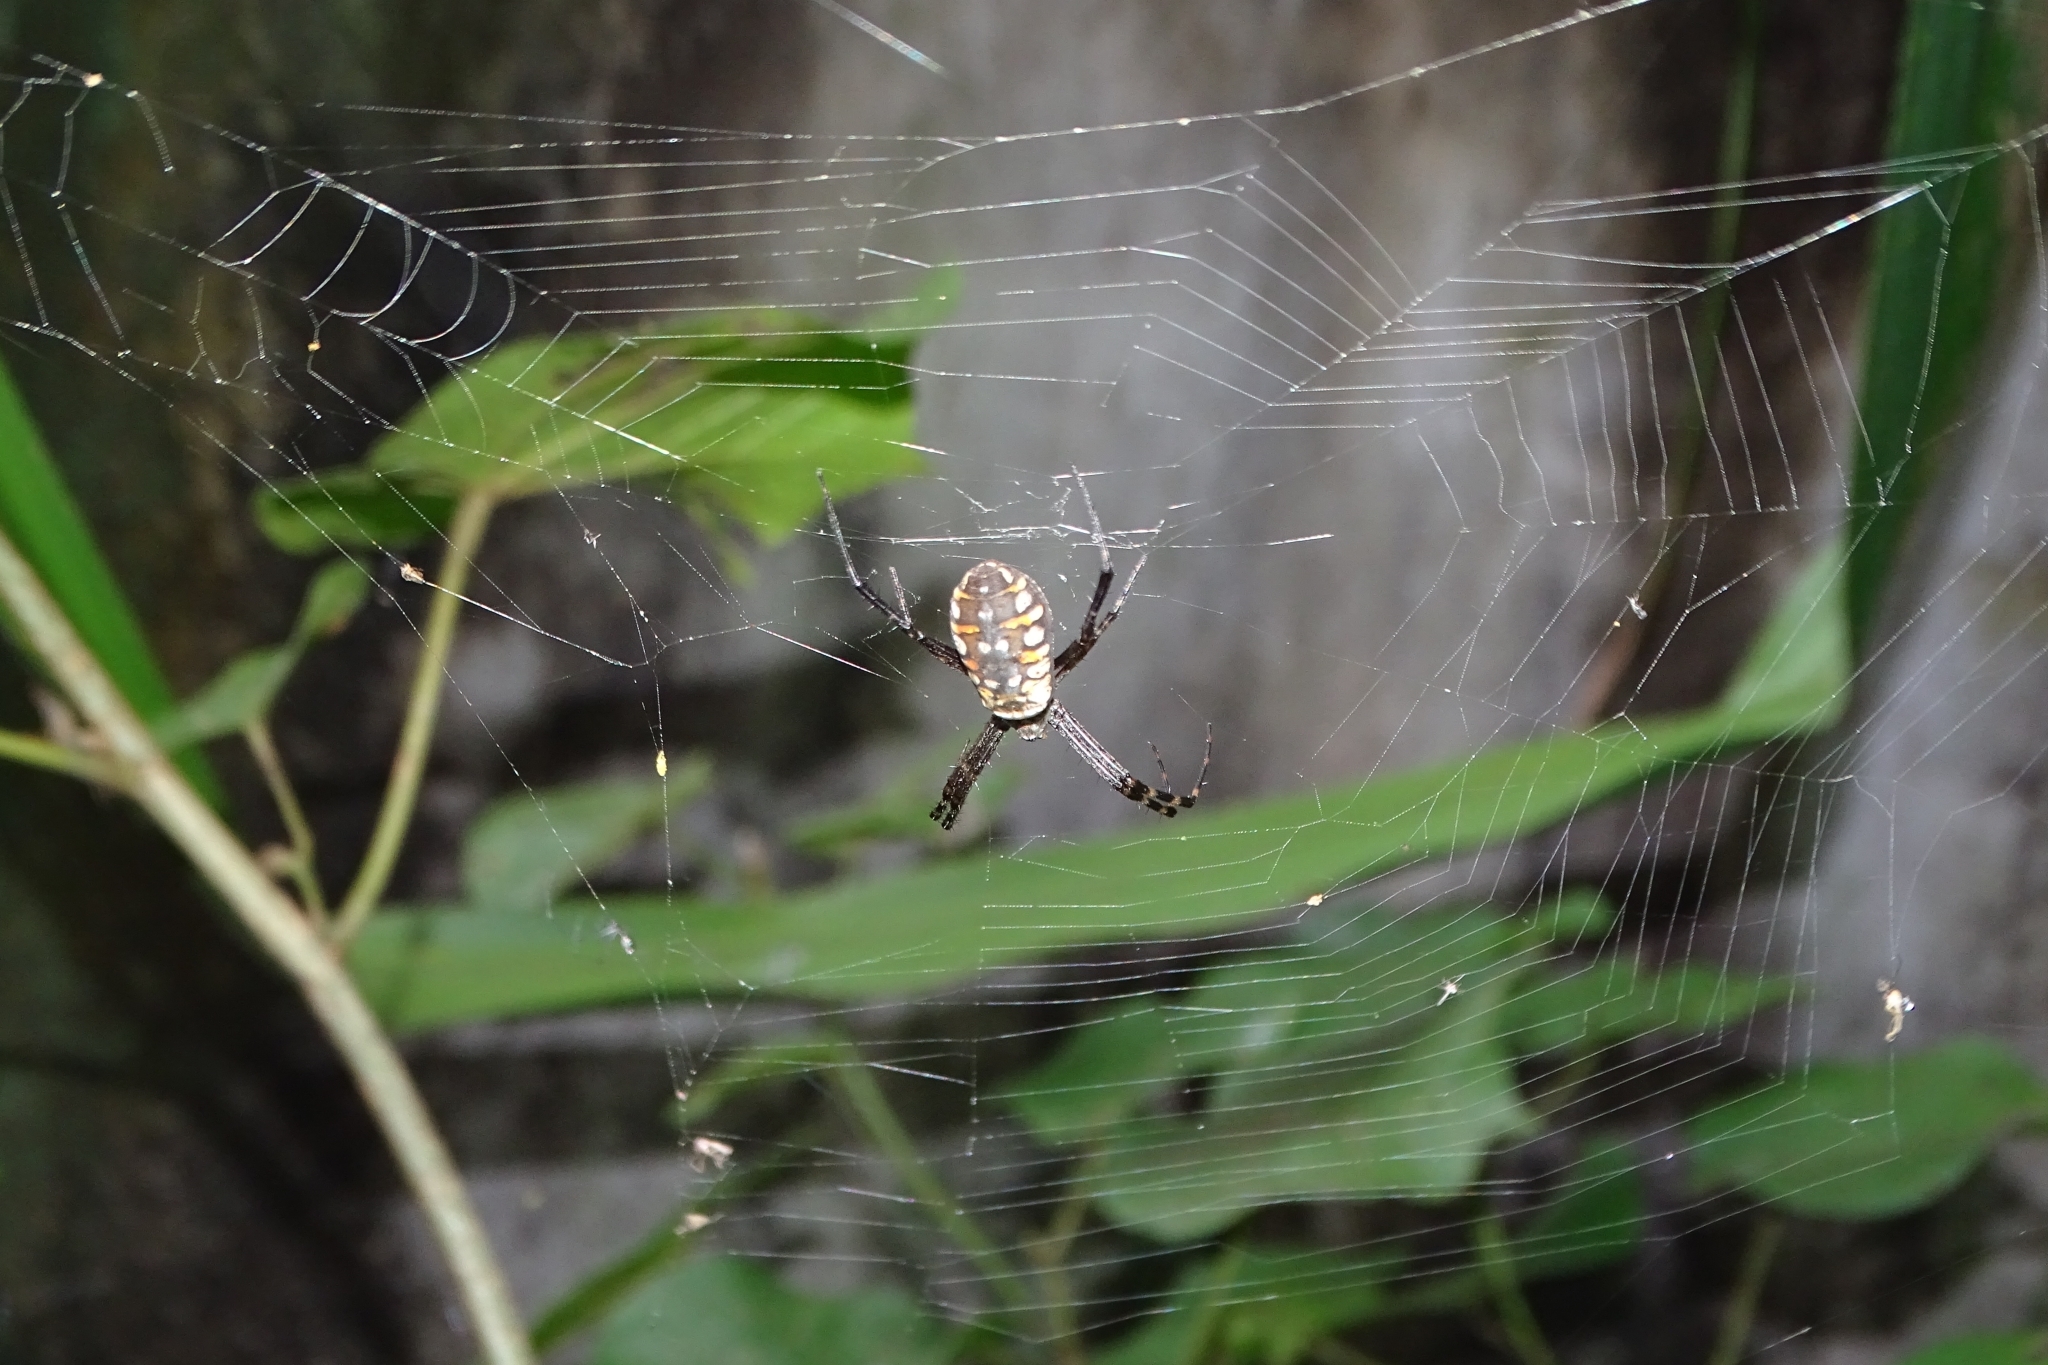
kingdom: Animalia
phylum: Arthropoda
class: Arachnida
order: Araneae
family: Araneidae
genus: Argiope
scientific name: Argiope catenulata
